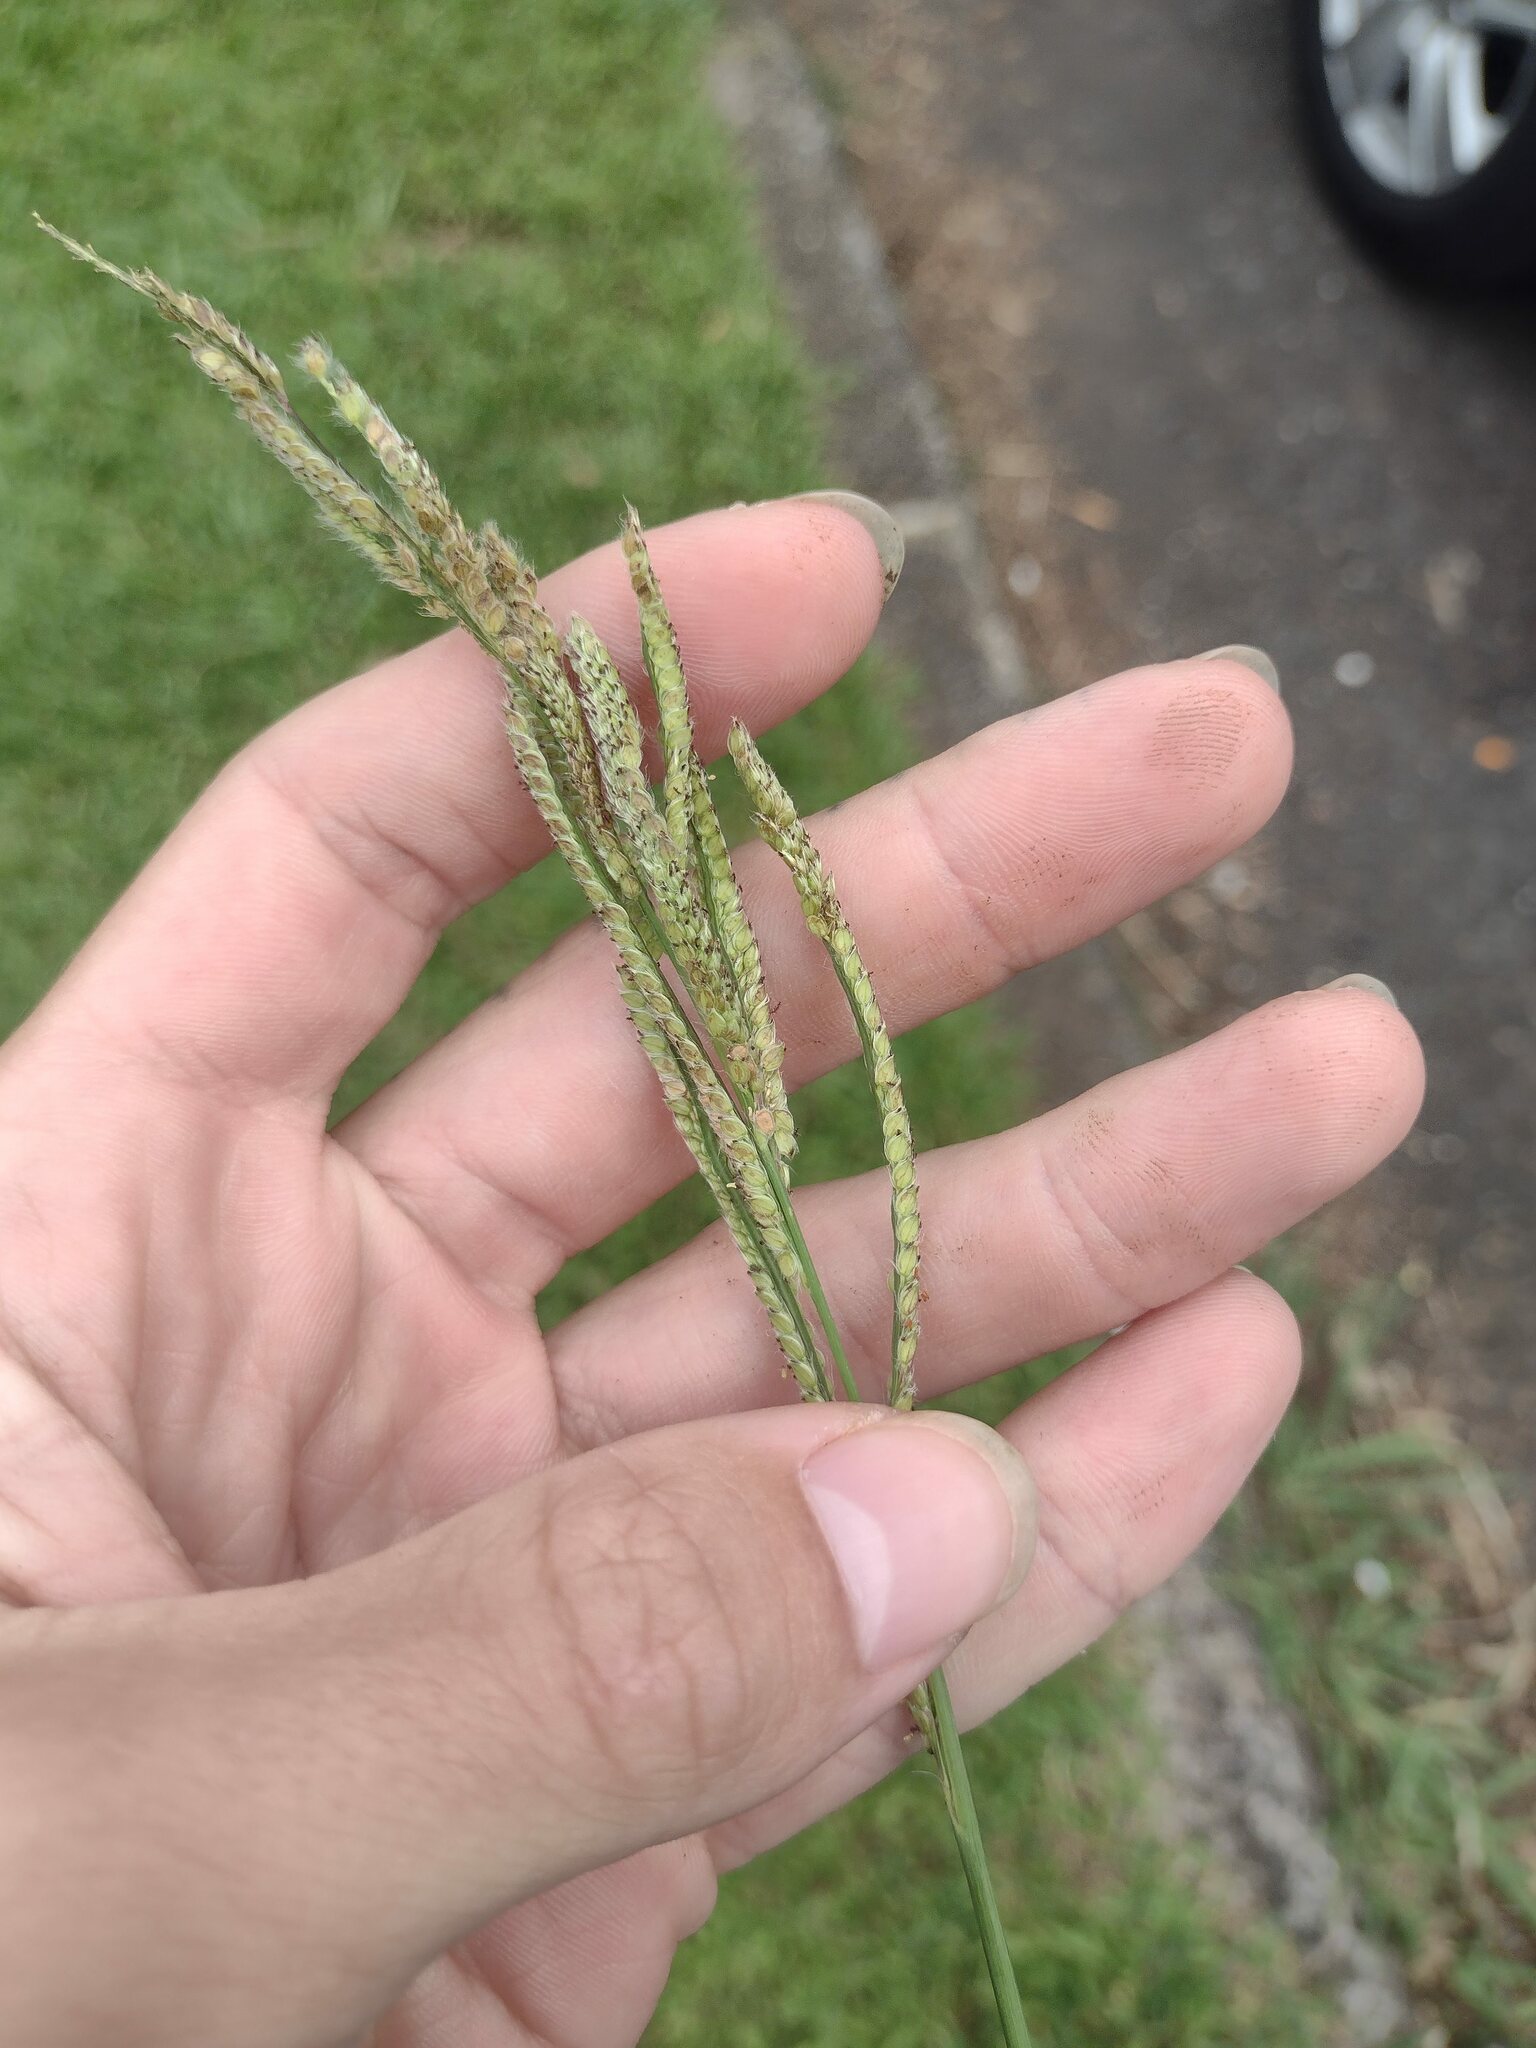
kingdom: Plantae
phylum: Tracheophyta
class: Liliopsida
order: Poales
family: Poaceae
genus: Paspalum
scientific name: Paspalum urvillei
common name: Vasey's grass
